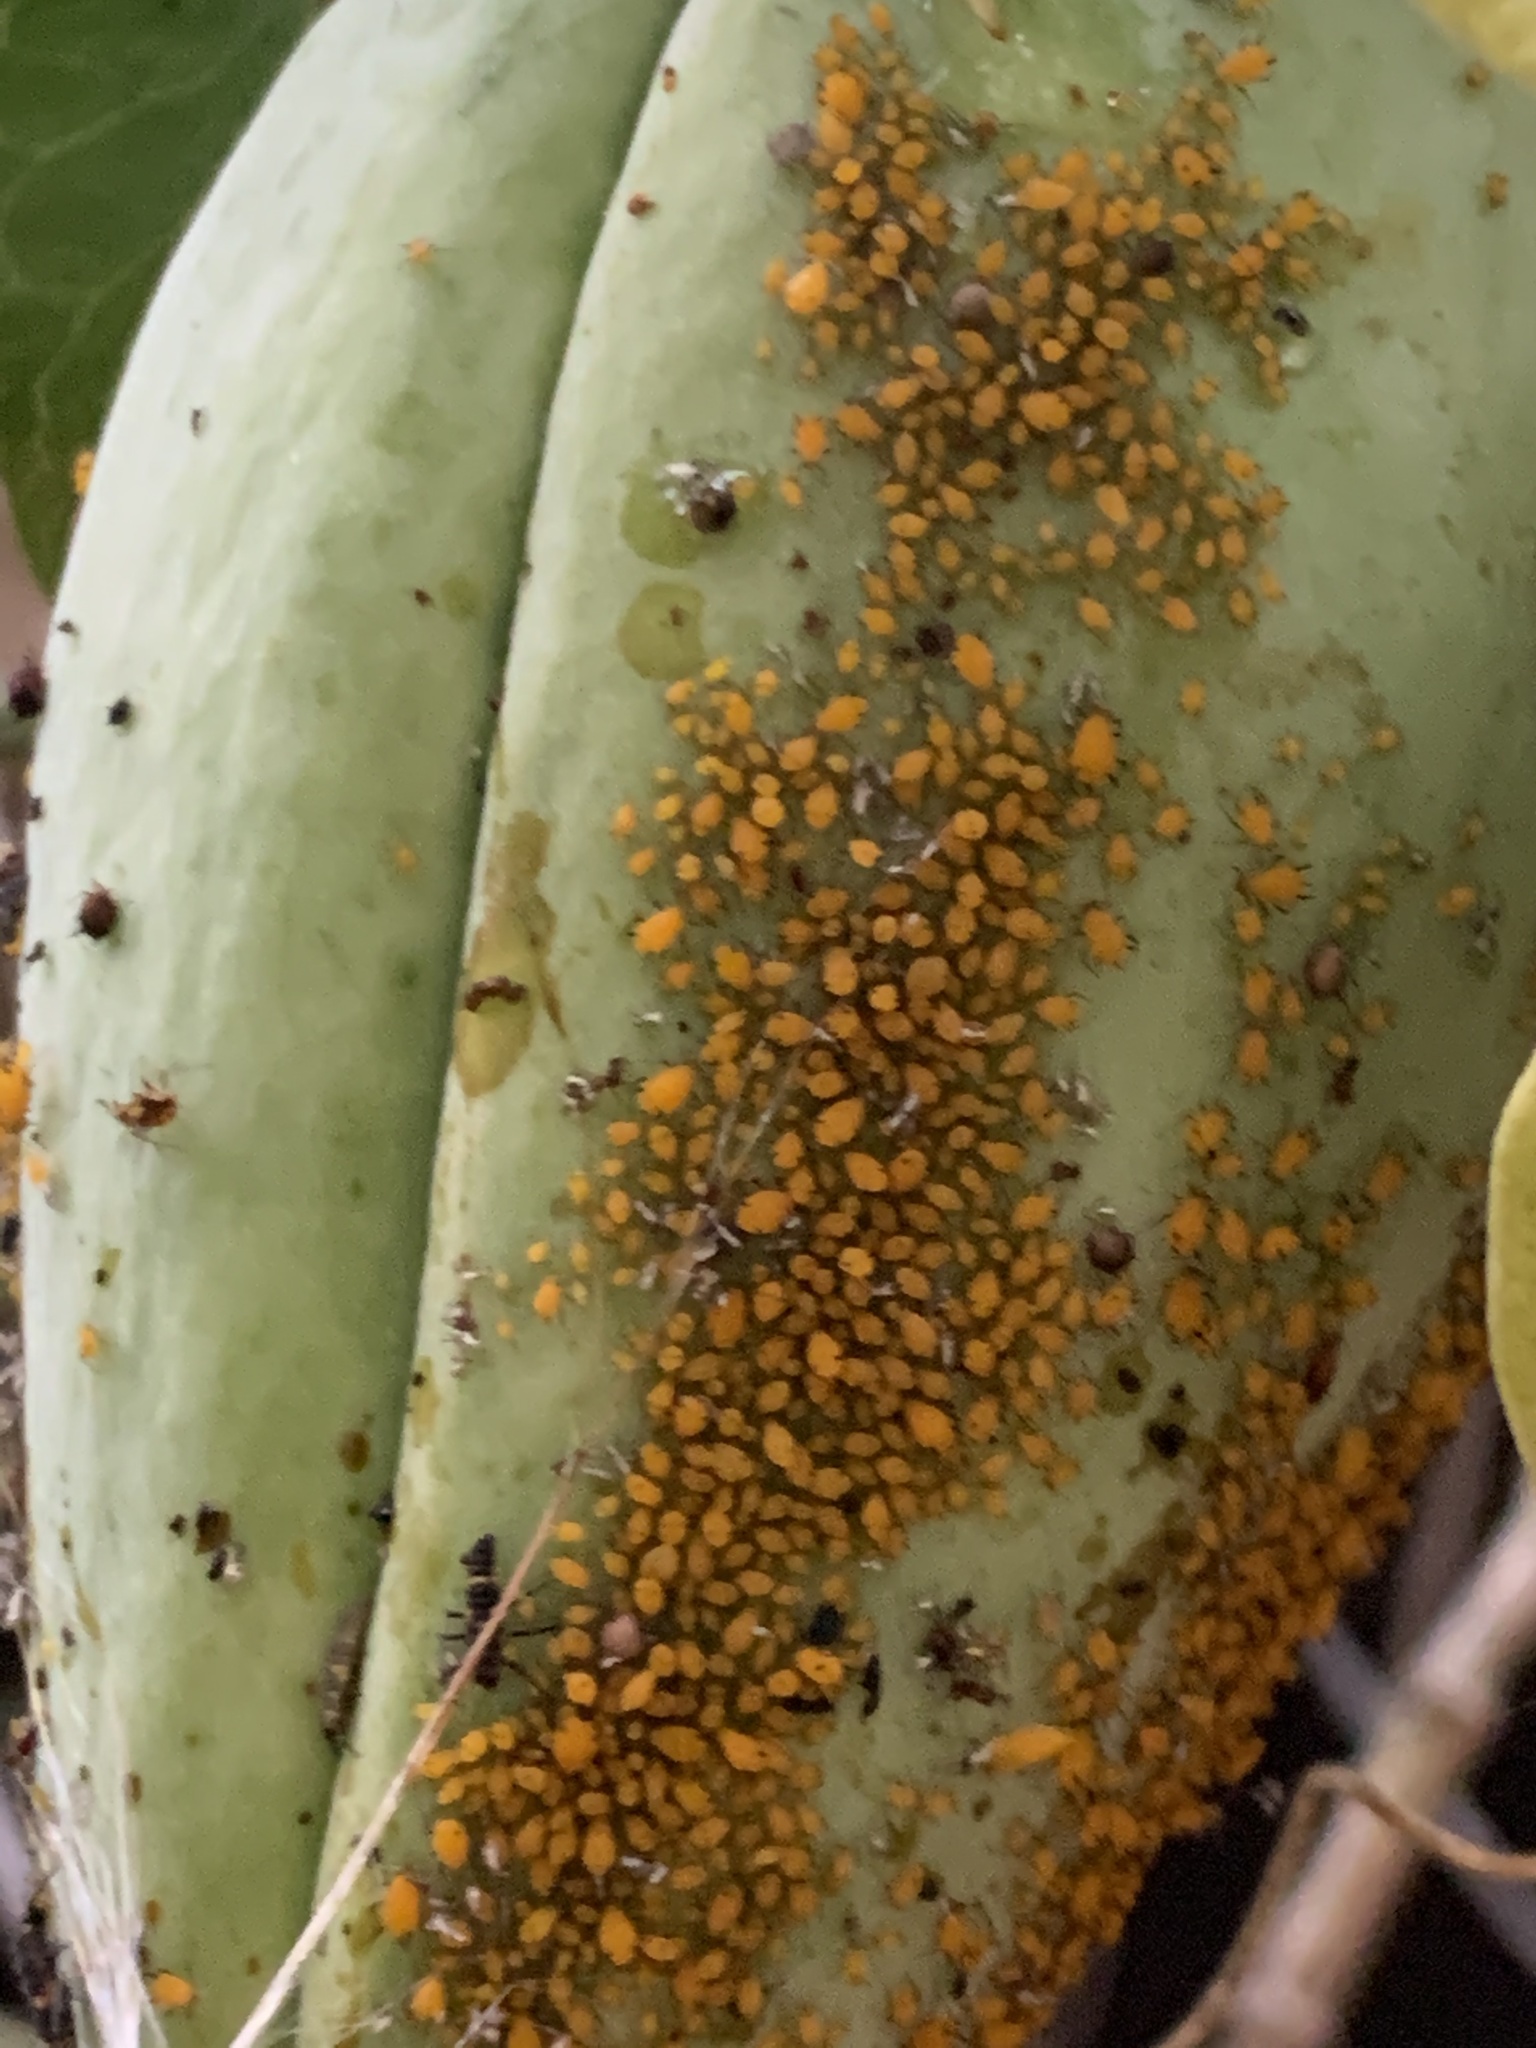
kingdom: Animalia
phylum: Arthropoda
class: Insecta
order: Hemiptera
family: Aphididae
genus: Aphis
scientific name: Aphis nerii
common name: Oleander aphid
